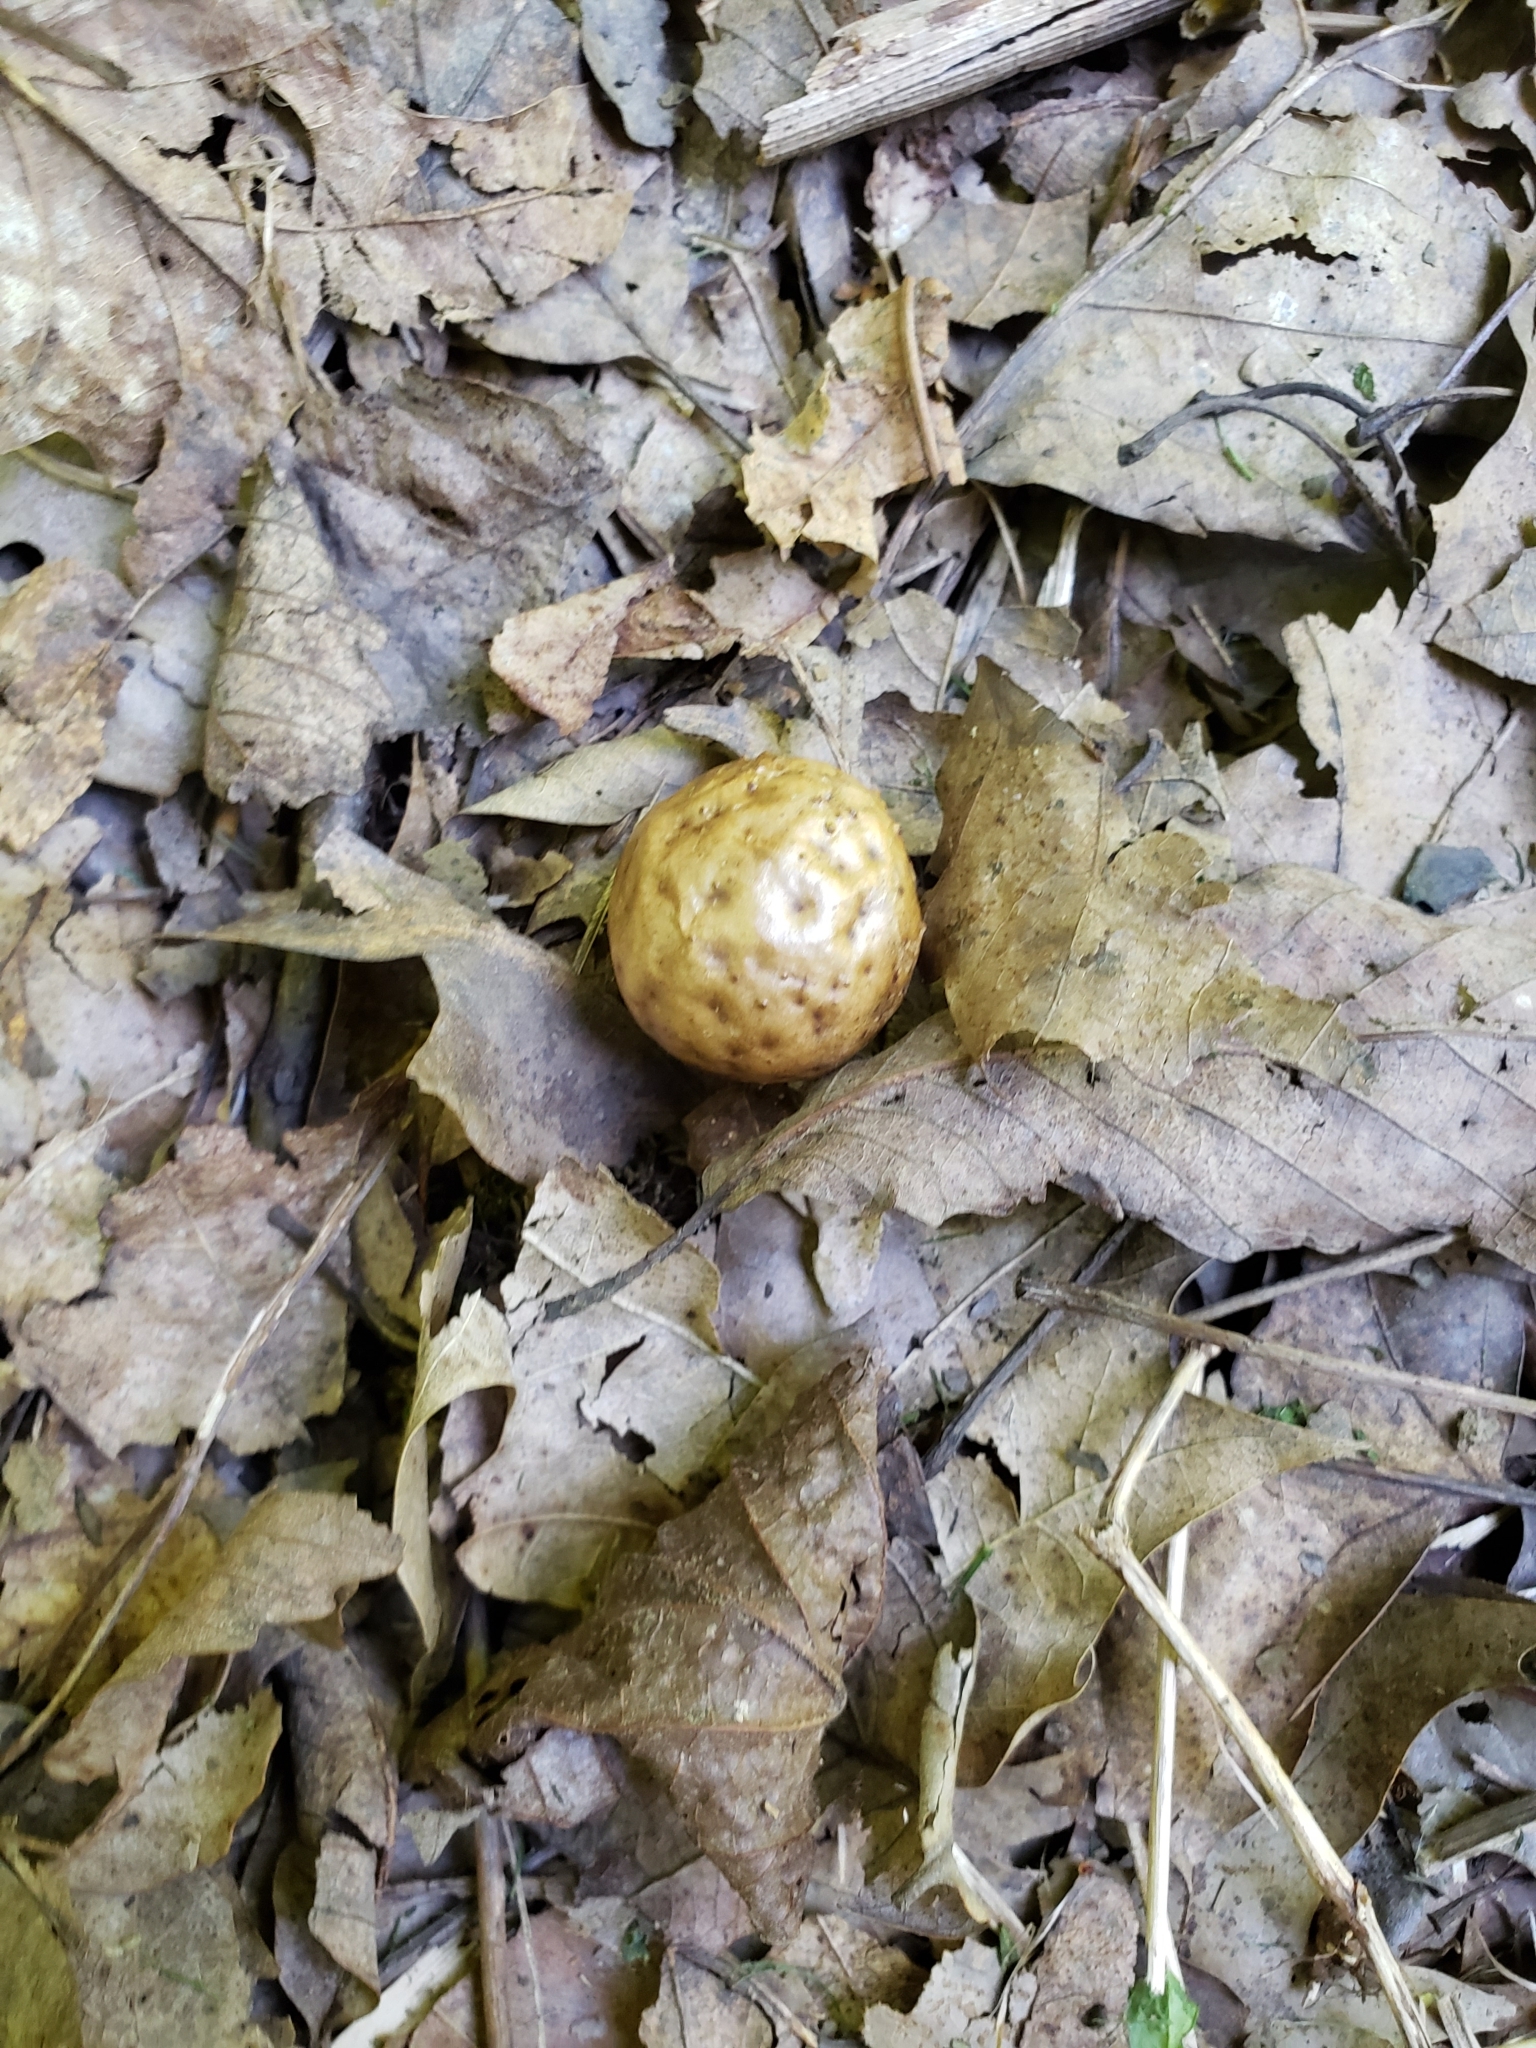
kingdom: Animalia
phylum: Arthropoda
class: Insecta
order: Hymenoptera
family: Cynipidae
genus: Amphibolips
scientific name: Amphibolips
